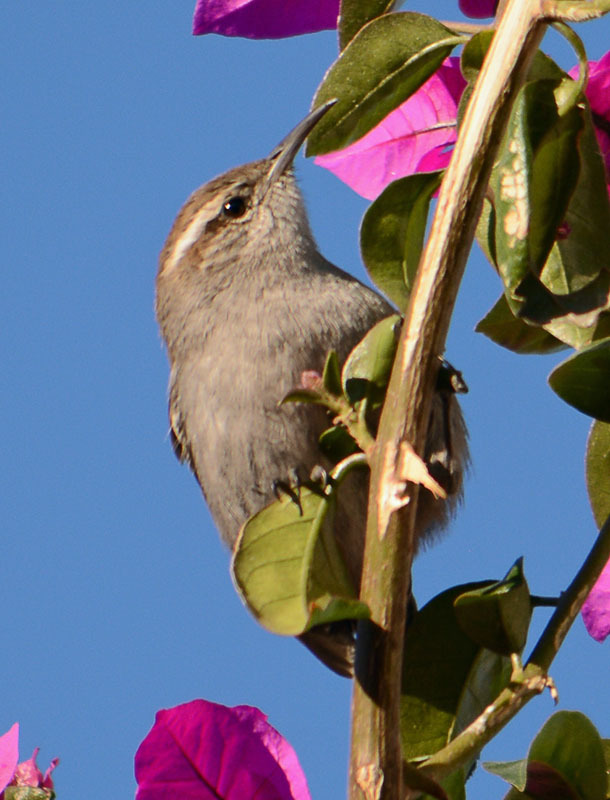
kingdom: Animalia
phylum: Chordata
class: Aves
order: Passeriformes
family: Troglodytidae
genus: Thryomanes
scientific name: Thryomanes bewickii
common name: Bewick's wren
